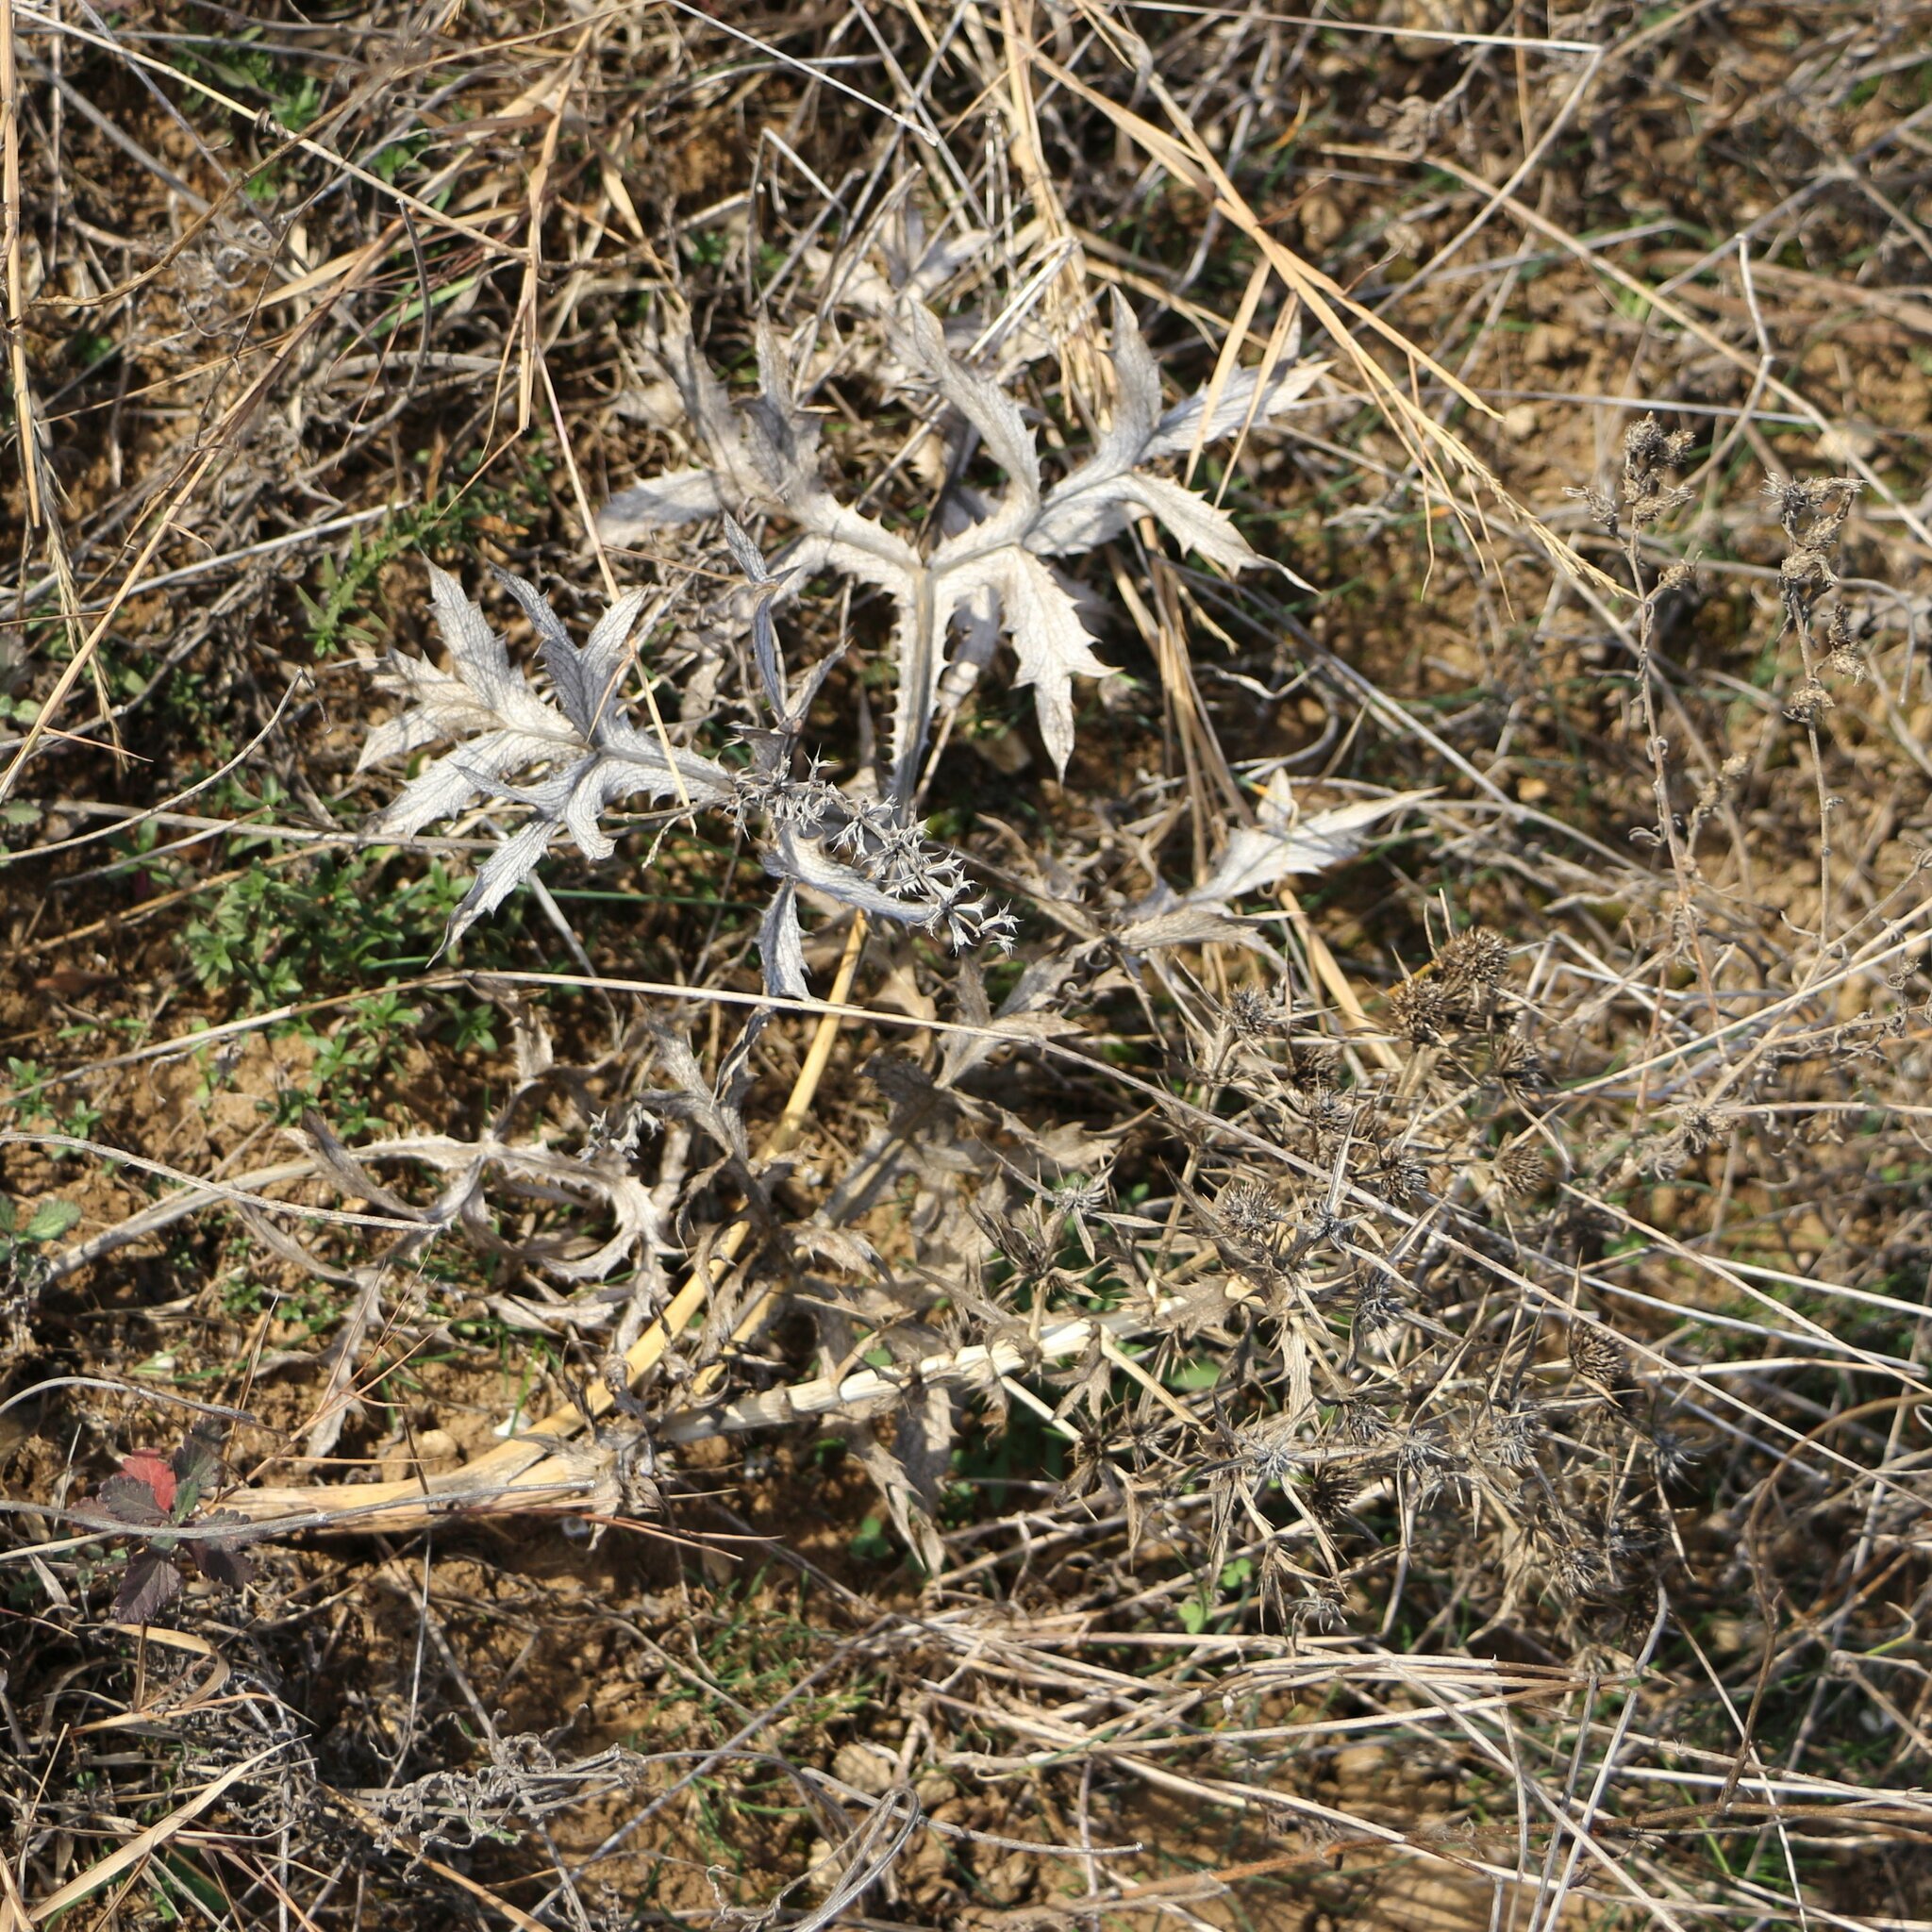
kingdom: Plantae
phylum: Tracheophyta
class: Magnoliopsida
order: Apiales
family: Apiaceae
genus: Eryngium
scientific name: Eryngium campestre
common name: Field eryngo
